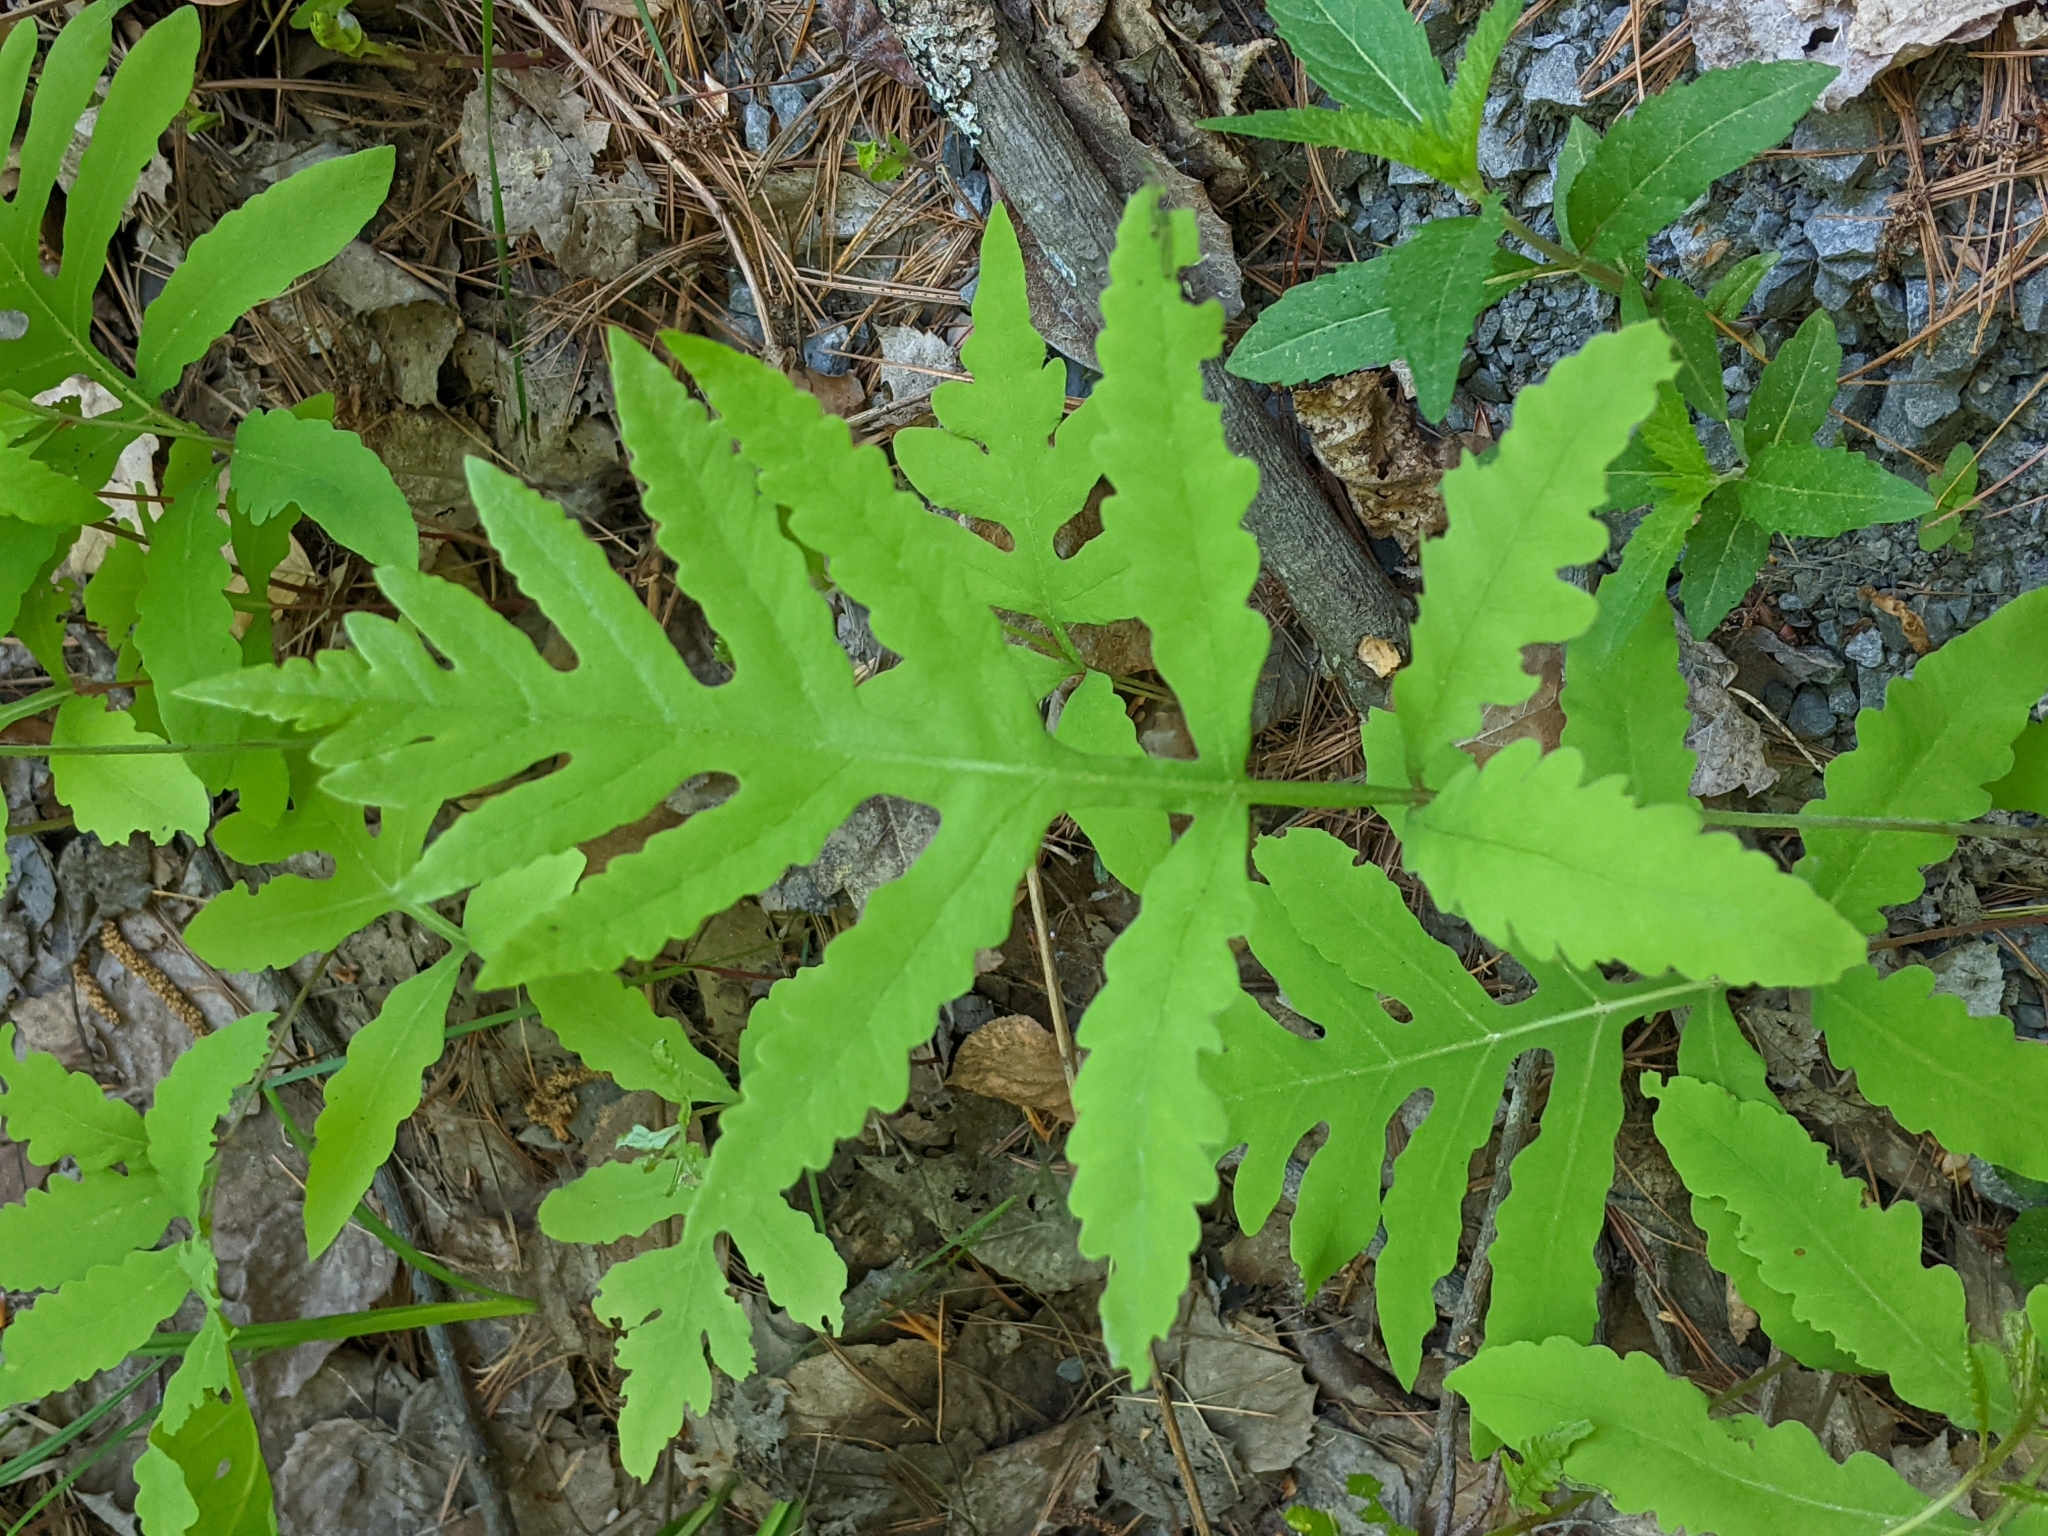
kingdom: Plantae
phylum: Tracheophyta
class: Polypodiopsida
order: Polypodiales
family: Onocleaceae
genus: Onoclea
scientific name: Onoclea sensibilis
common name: Sensitive fern
